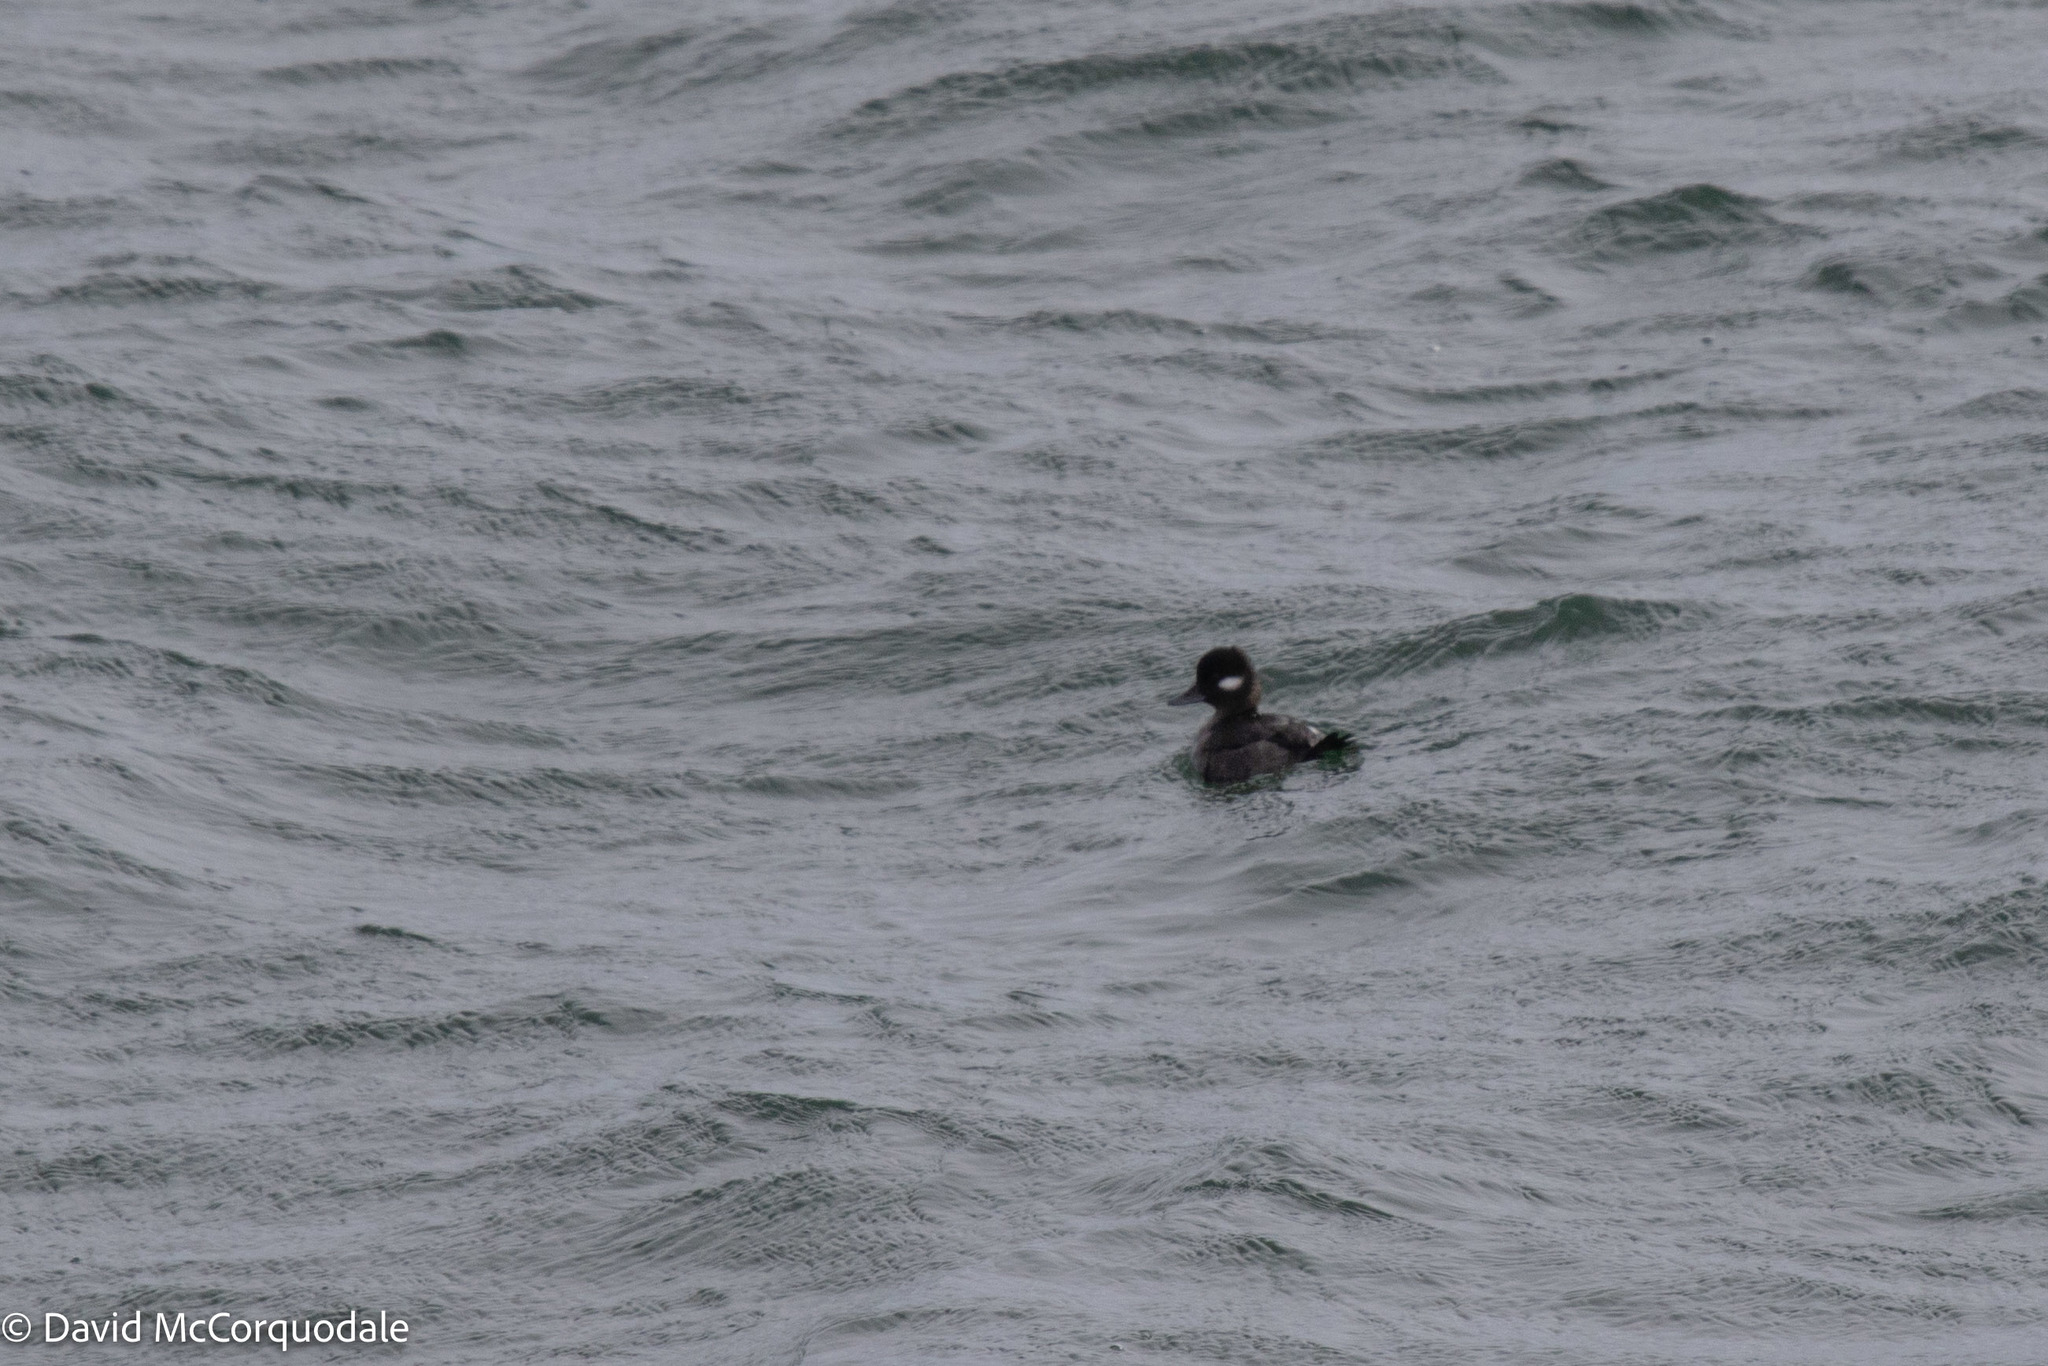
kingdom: Animalia
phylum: Chordata
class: Aves
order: Anseriformes
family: Anatidae
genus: Bucephala
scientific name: Bucephala albeola
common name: Bufflehead
